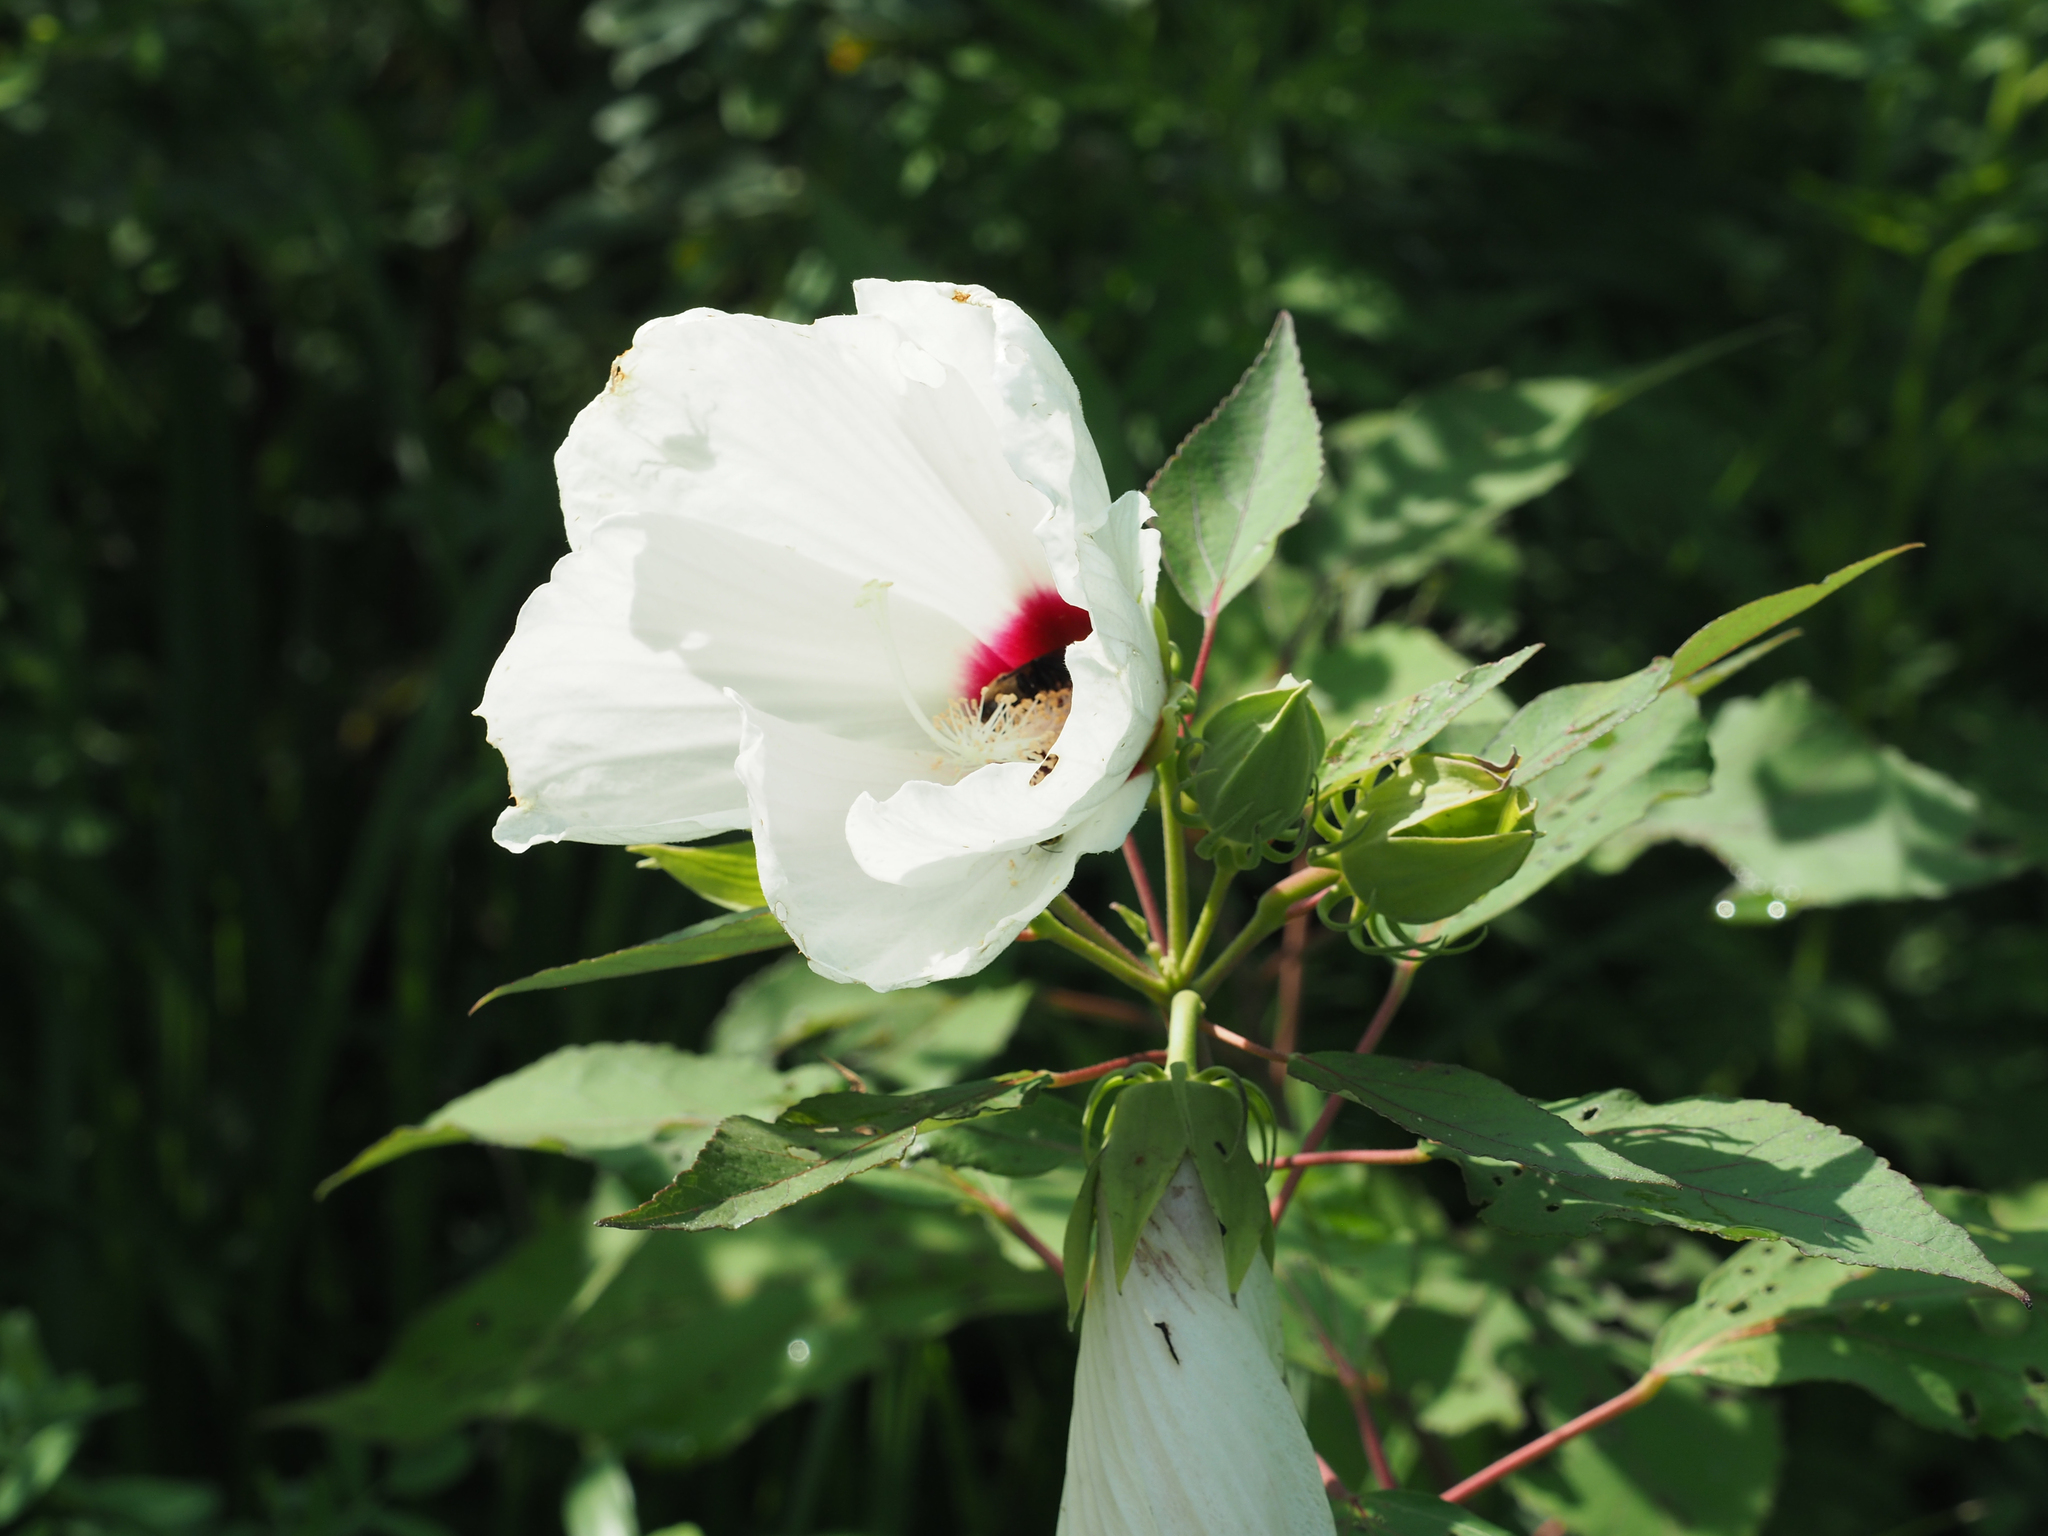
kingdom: Plantae
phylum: Tracheophyta
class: Magnoliopsida
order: Malvales
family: Malvaceae
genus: Hibiscus
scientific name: Hibiscus moscheutos
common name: Common rose-mallow
